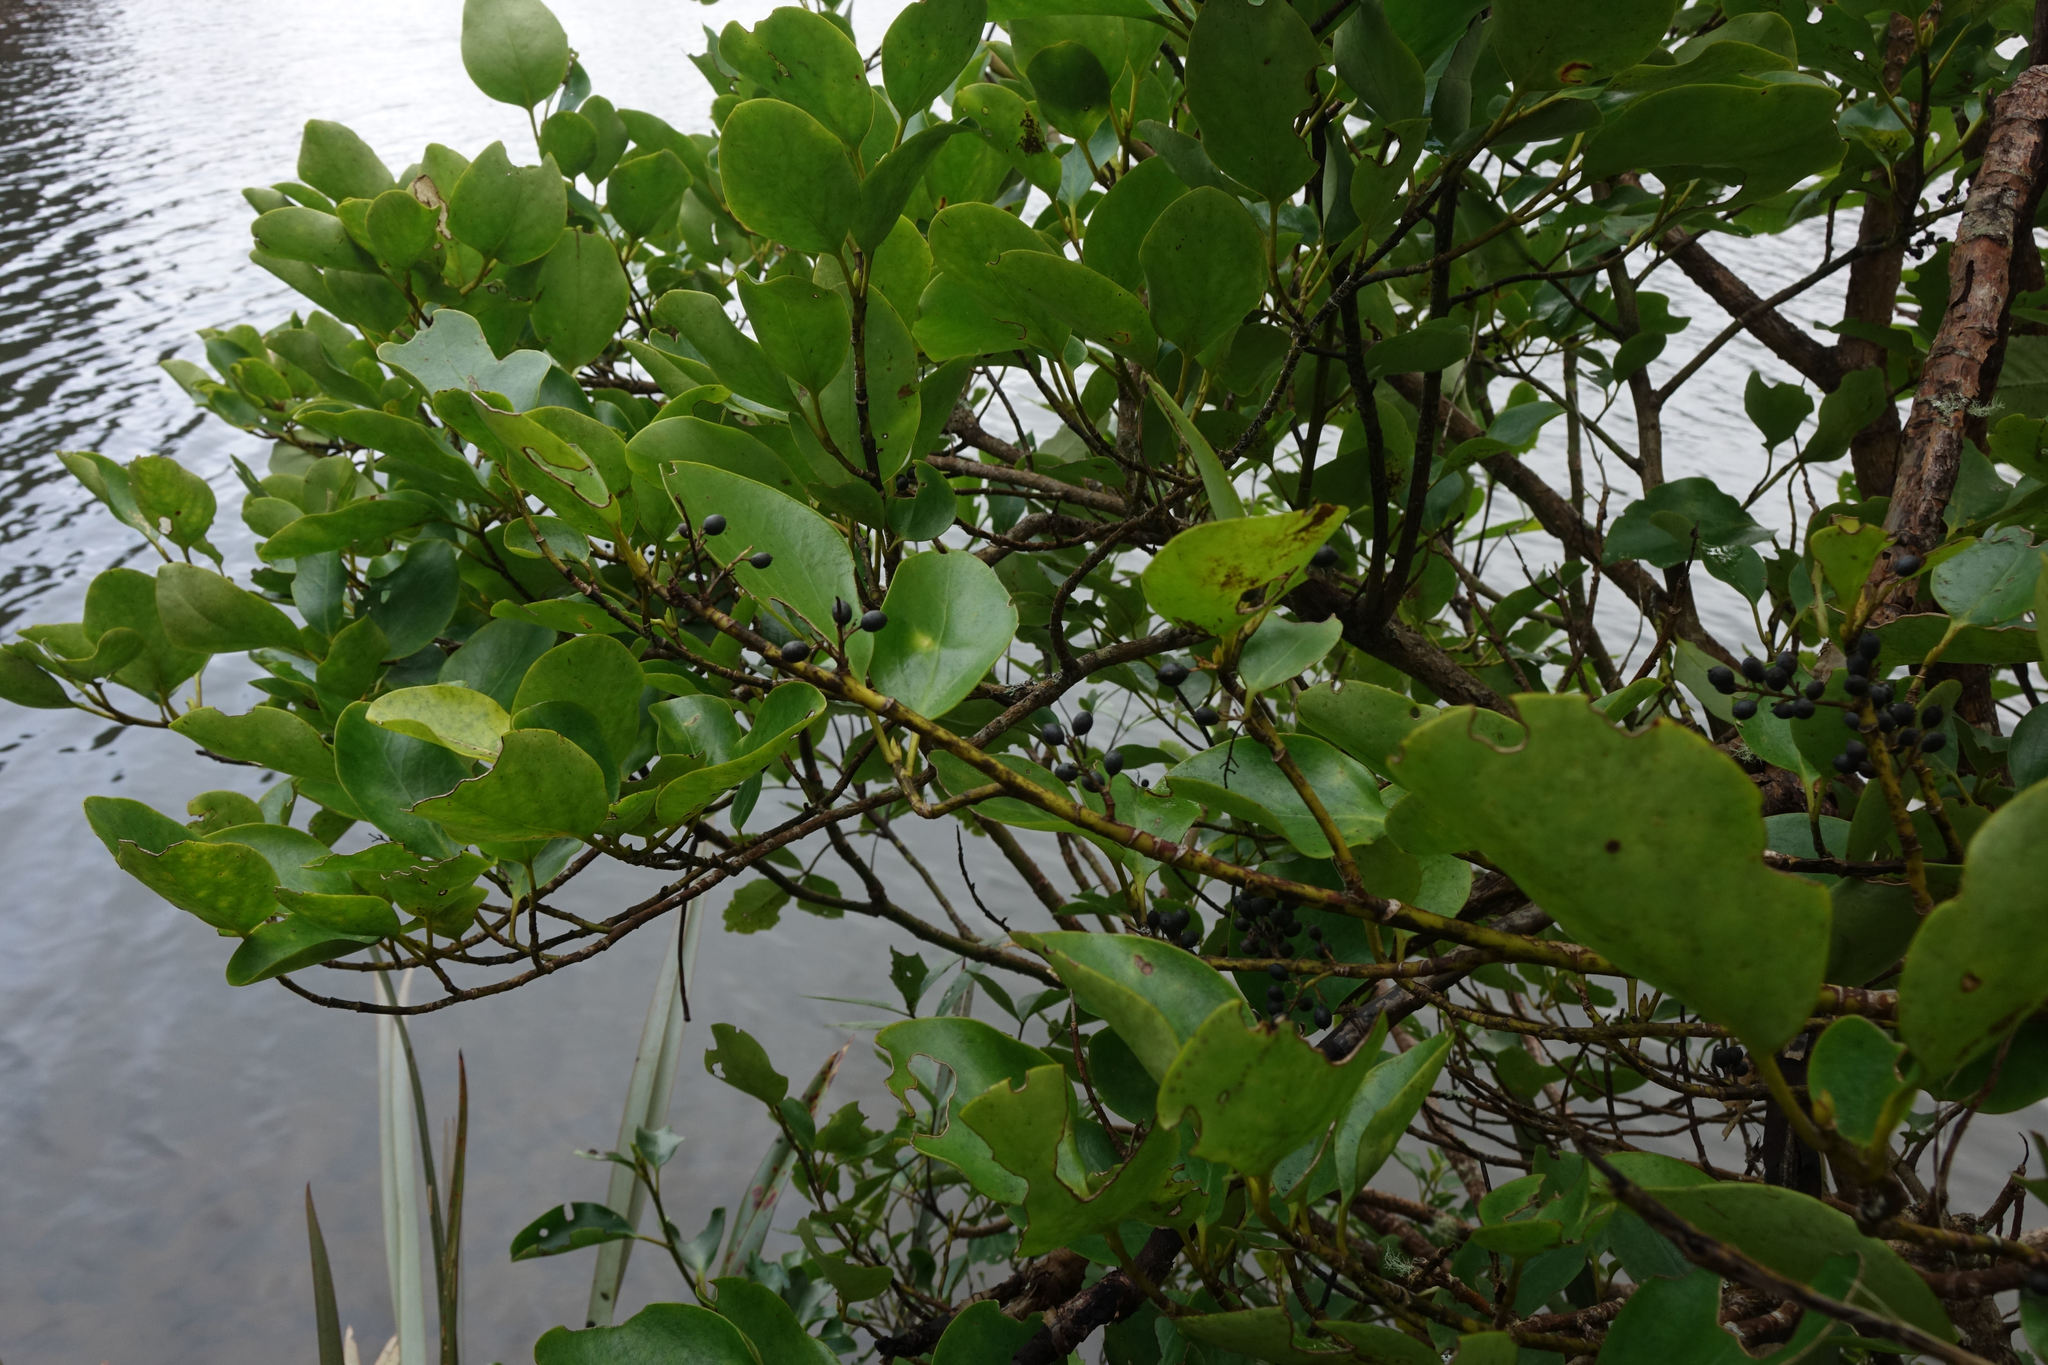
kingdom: Plantae
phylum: Tracheophyta
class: Magnoliopsida
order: Apiales
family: Griseliniaceae
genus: Griselinia
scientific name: Griselinia littoralis
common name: New zealand broadleaf
